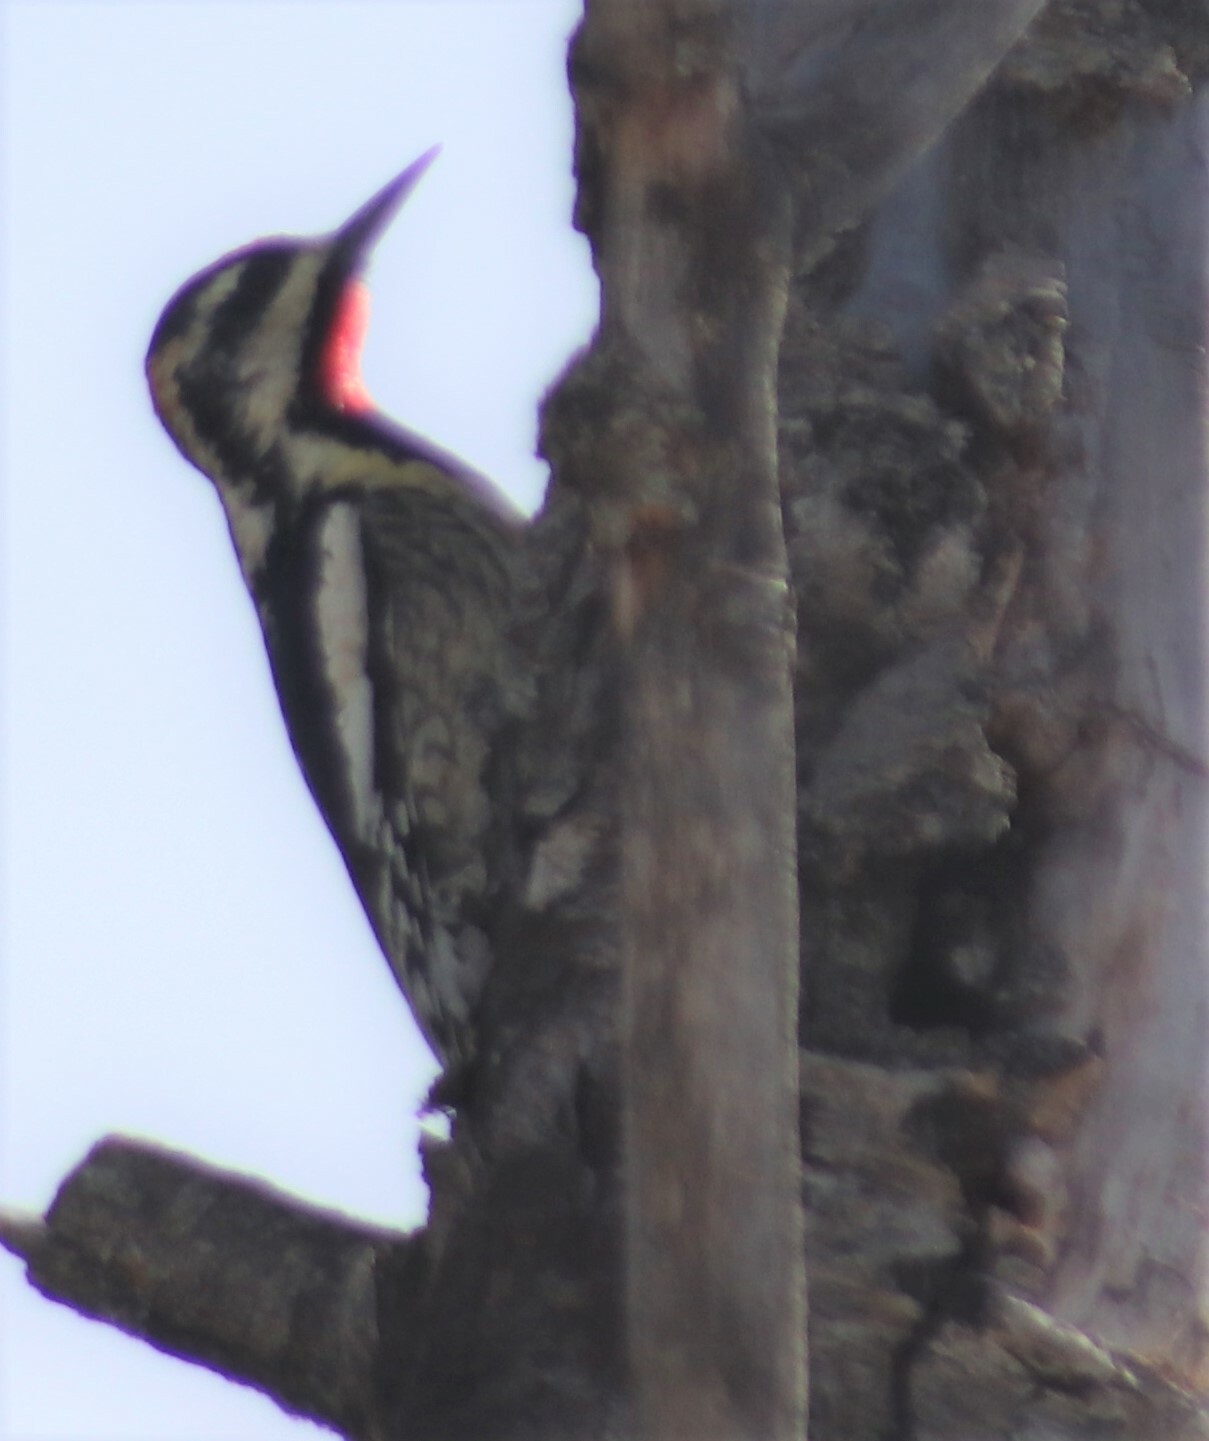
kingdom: Animalia
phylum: Chordata
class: Aves
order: Piciformes
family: Picidae
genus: Sphyrapicus
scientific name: Sphyrapicus varius
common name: Yellow-bellied sapsucker
